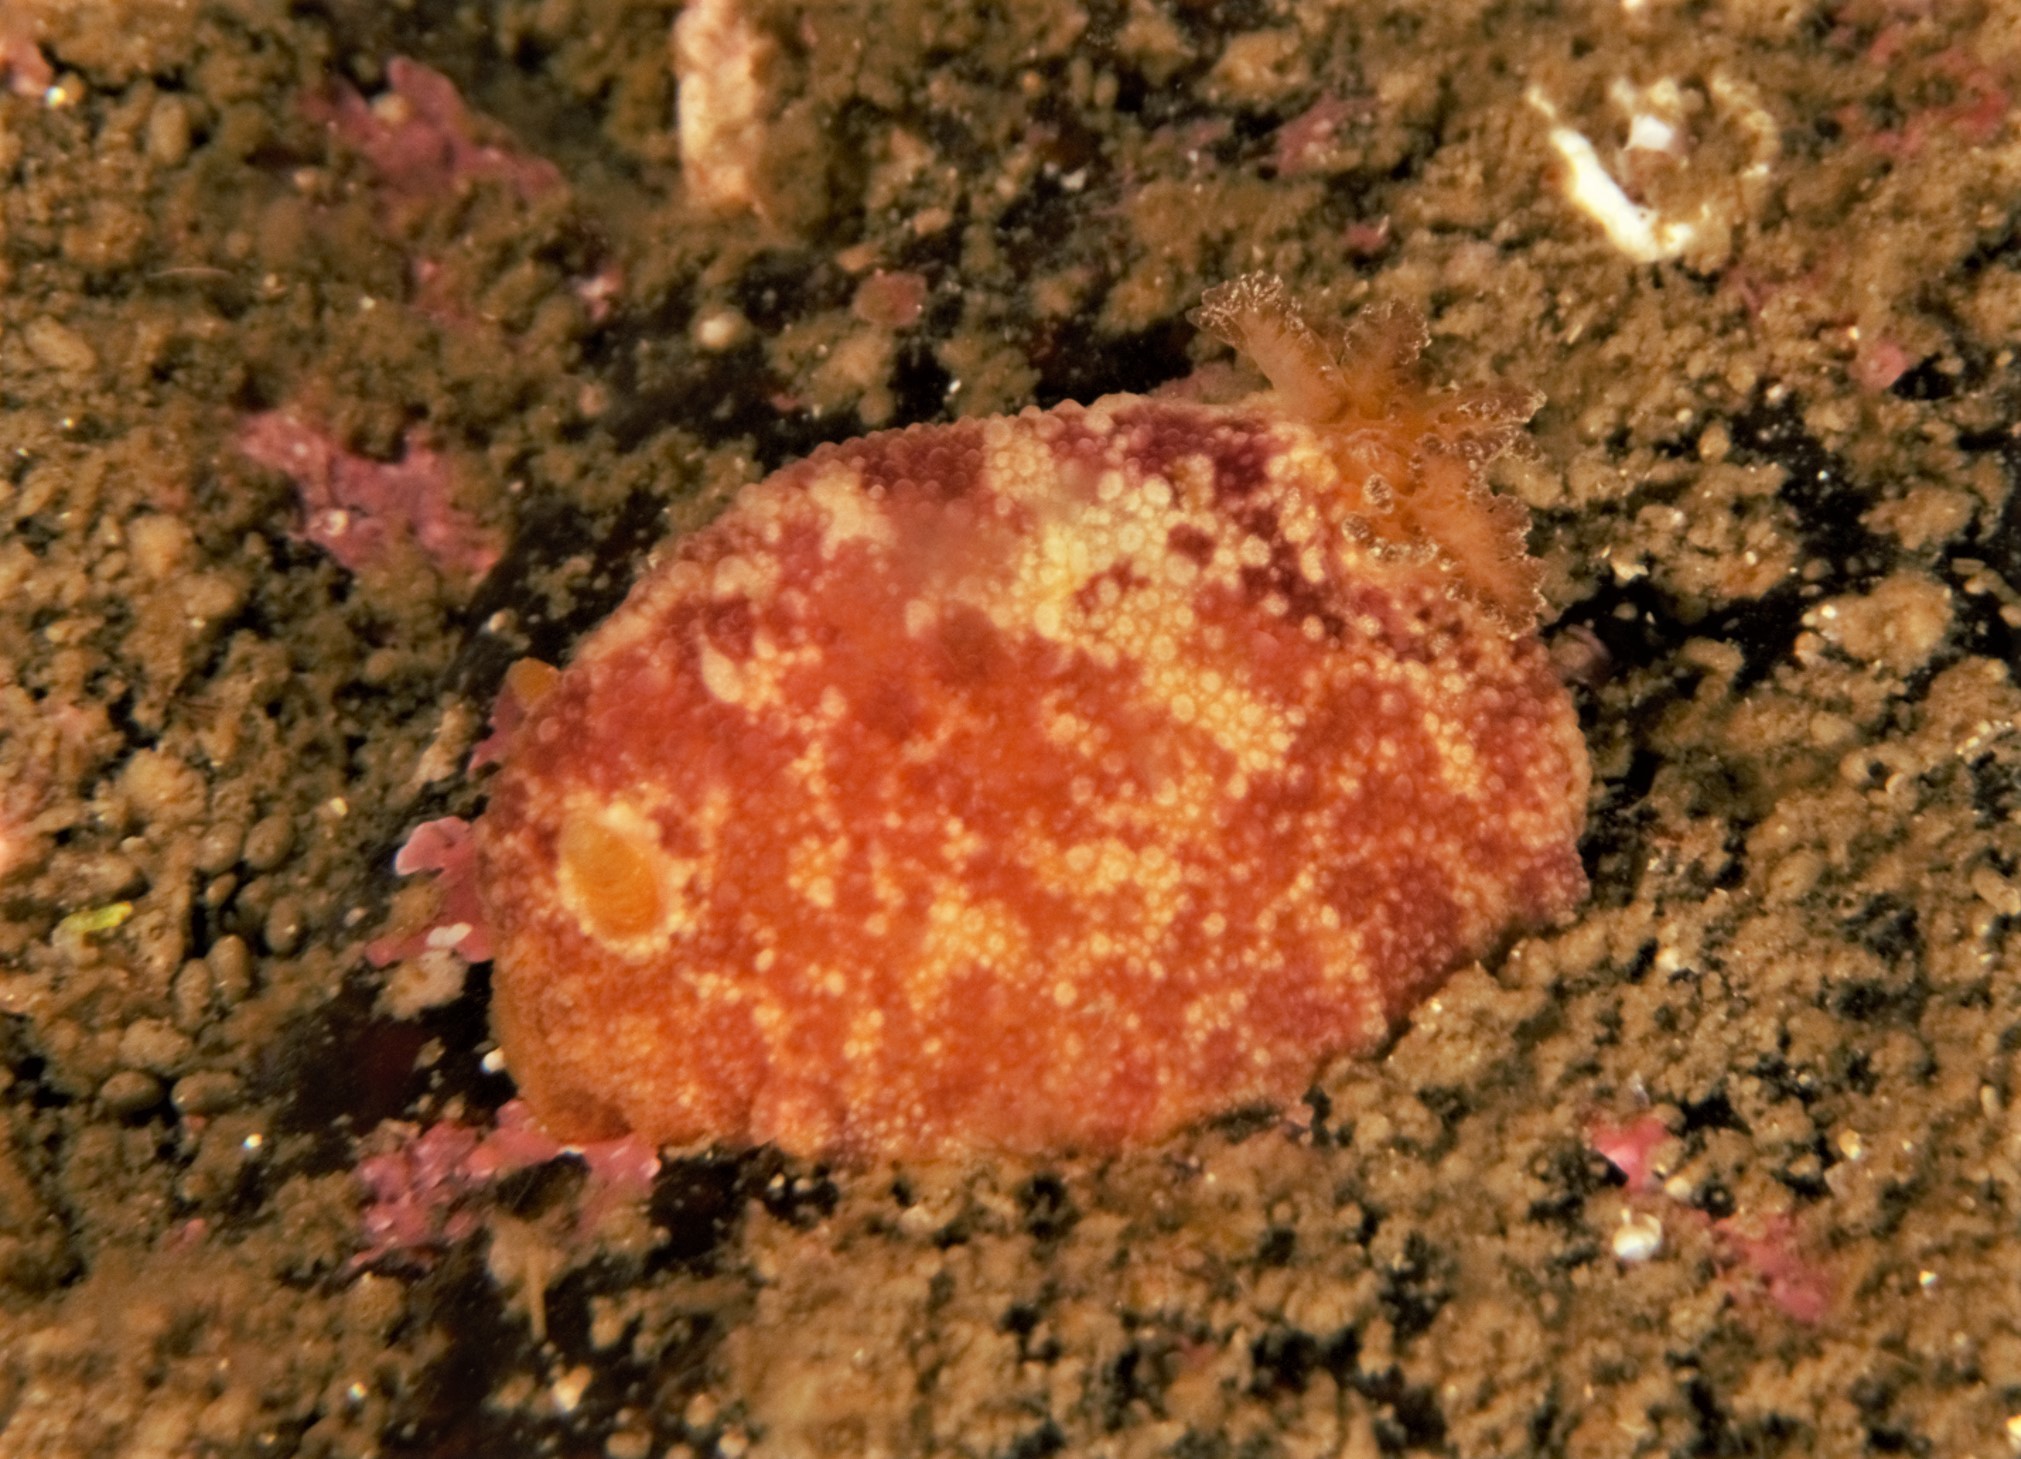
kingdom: Animalia
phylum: Mollusca
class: Gastropoda
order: Nudibranchia
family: Dorididae
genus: Doris
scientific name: Doris pseudoargus
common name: Sea lemon
